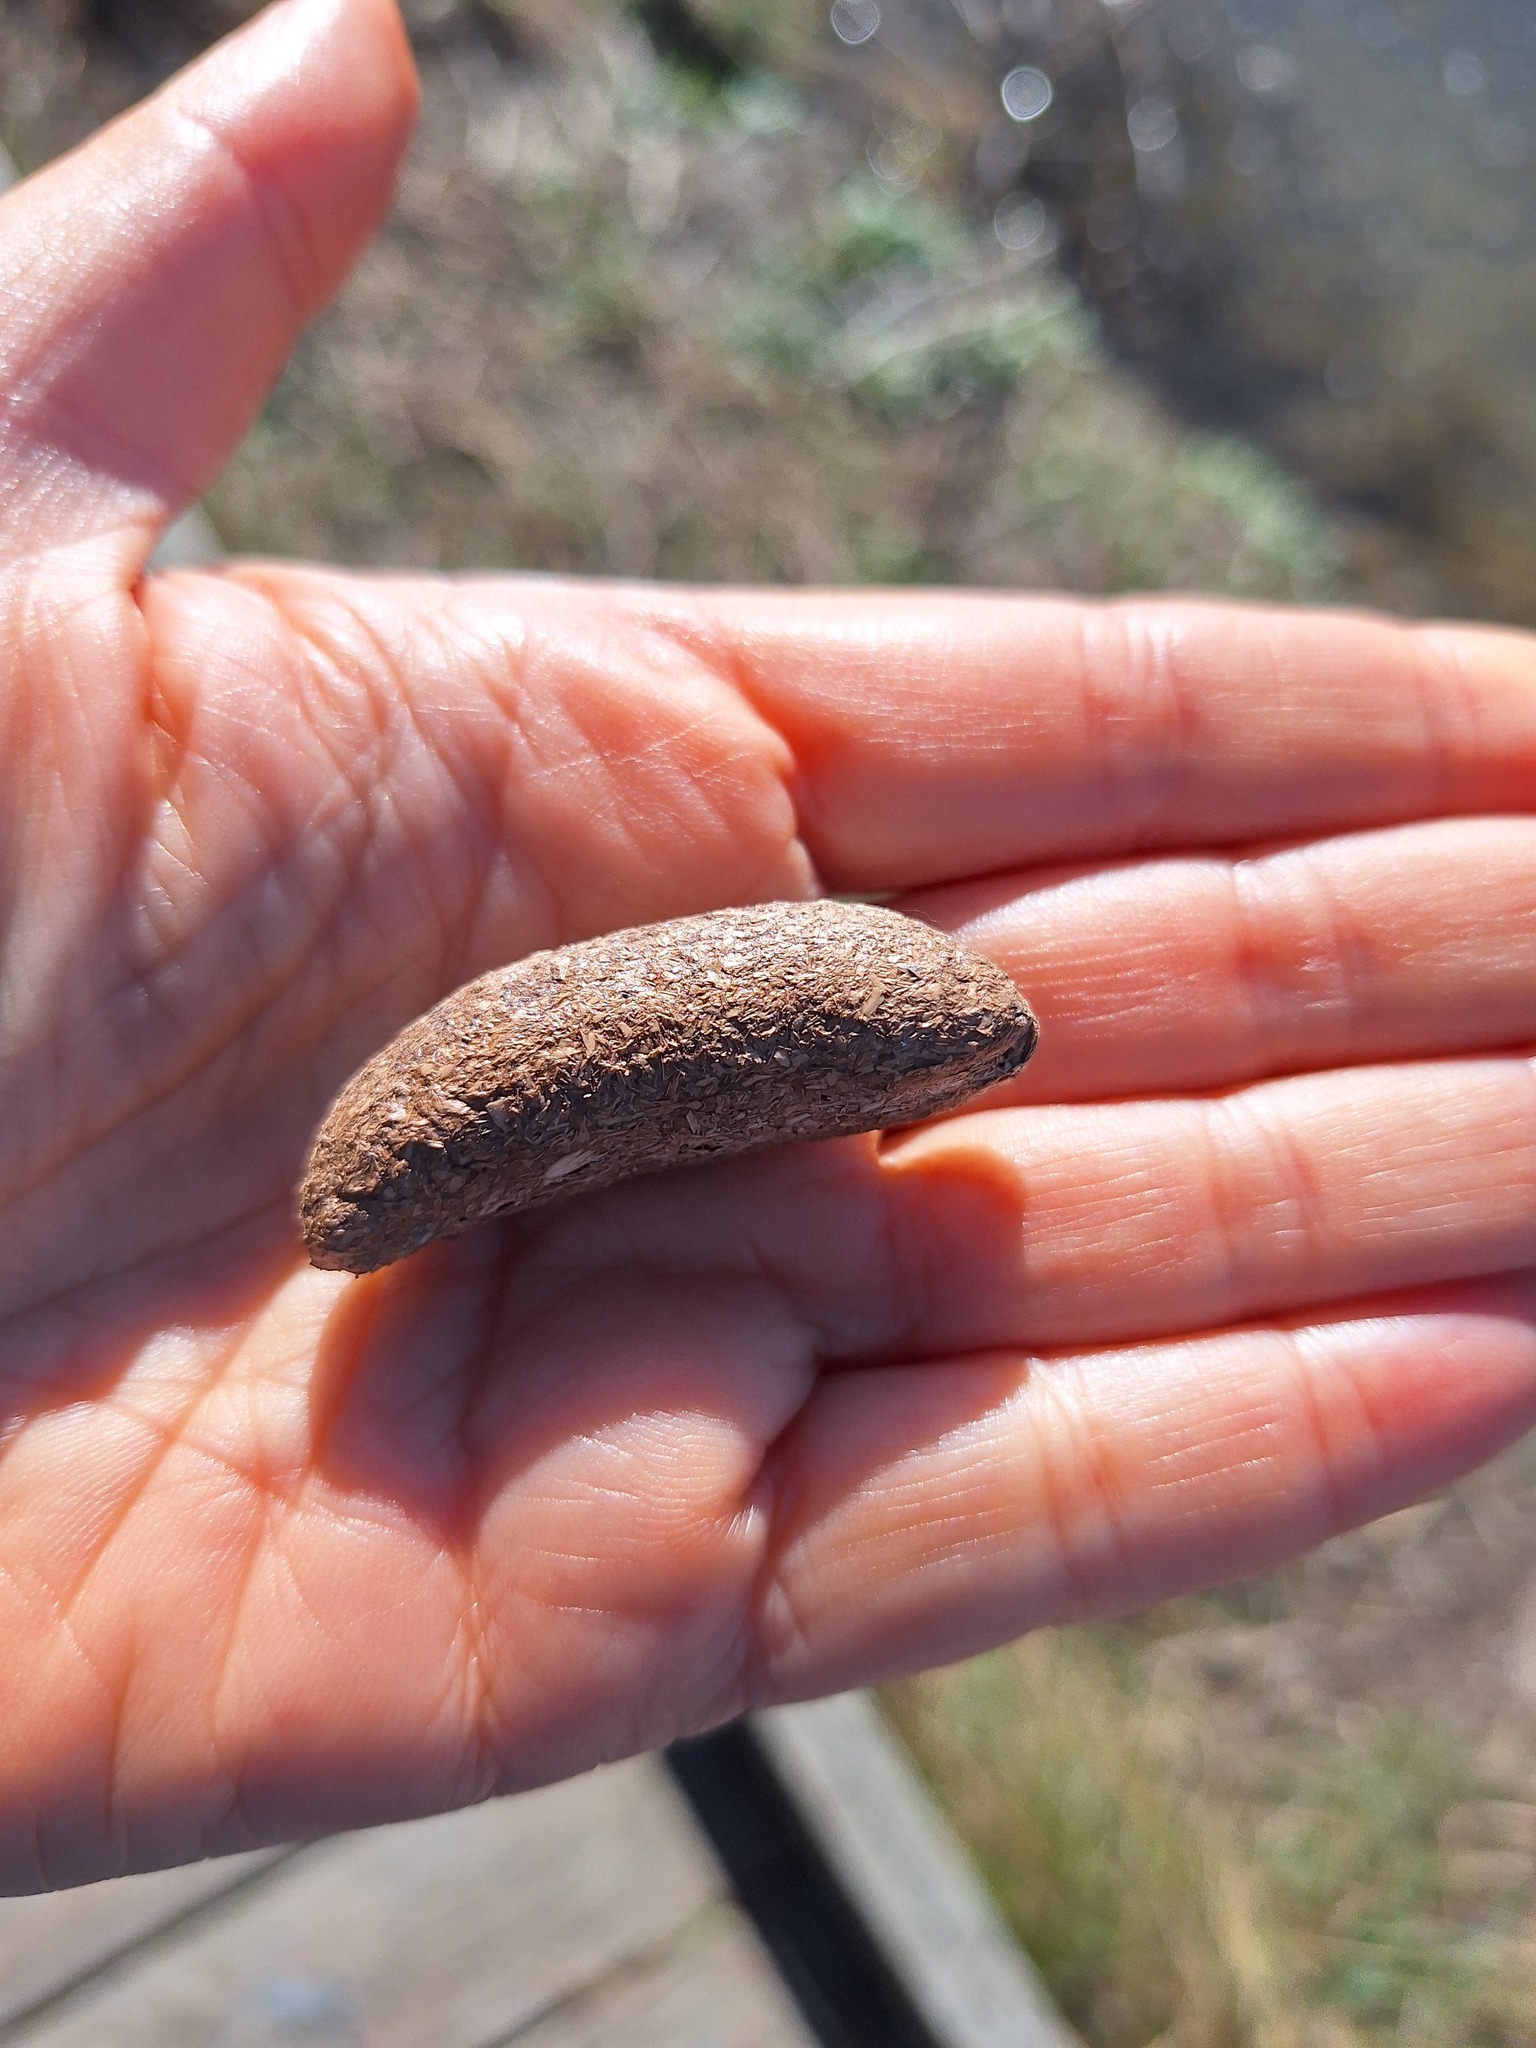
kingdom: Animalia
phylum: Chordata
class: Mammalia
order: Rodentia
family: Myocastoridae
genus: Myocastor
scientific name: Myocastor coypus
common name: Coypu
